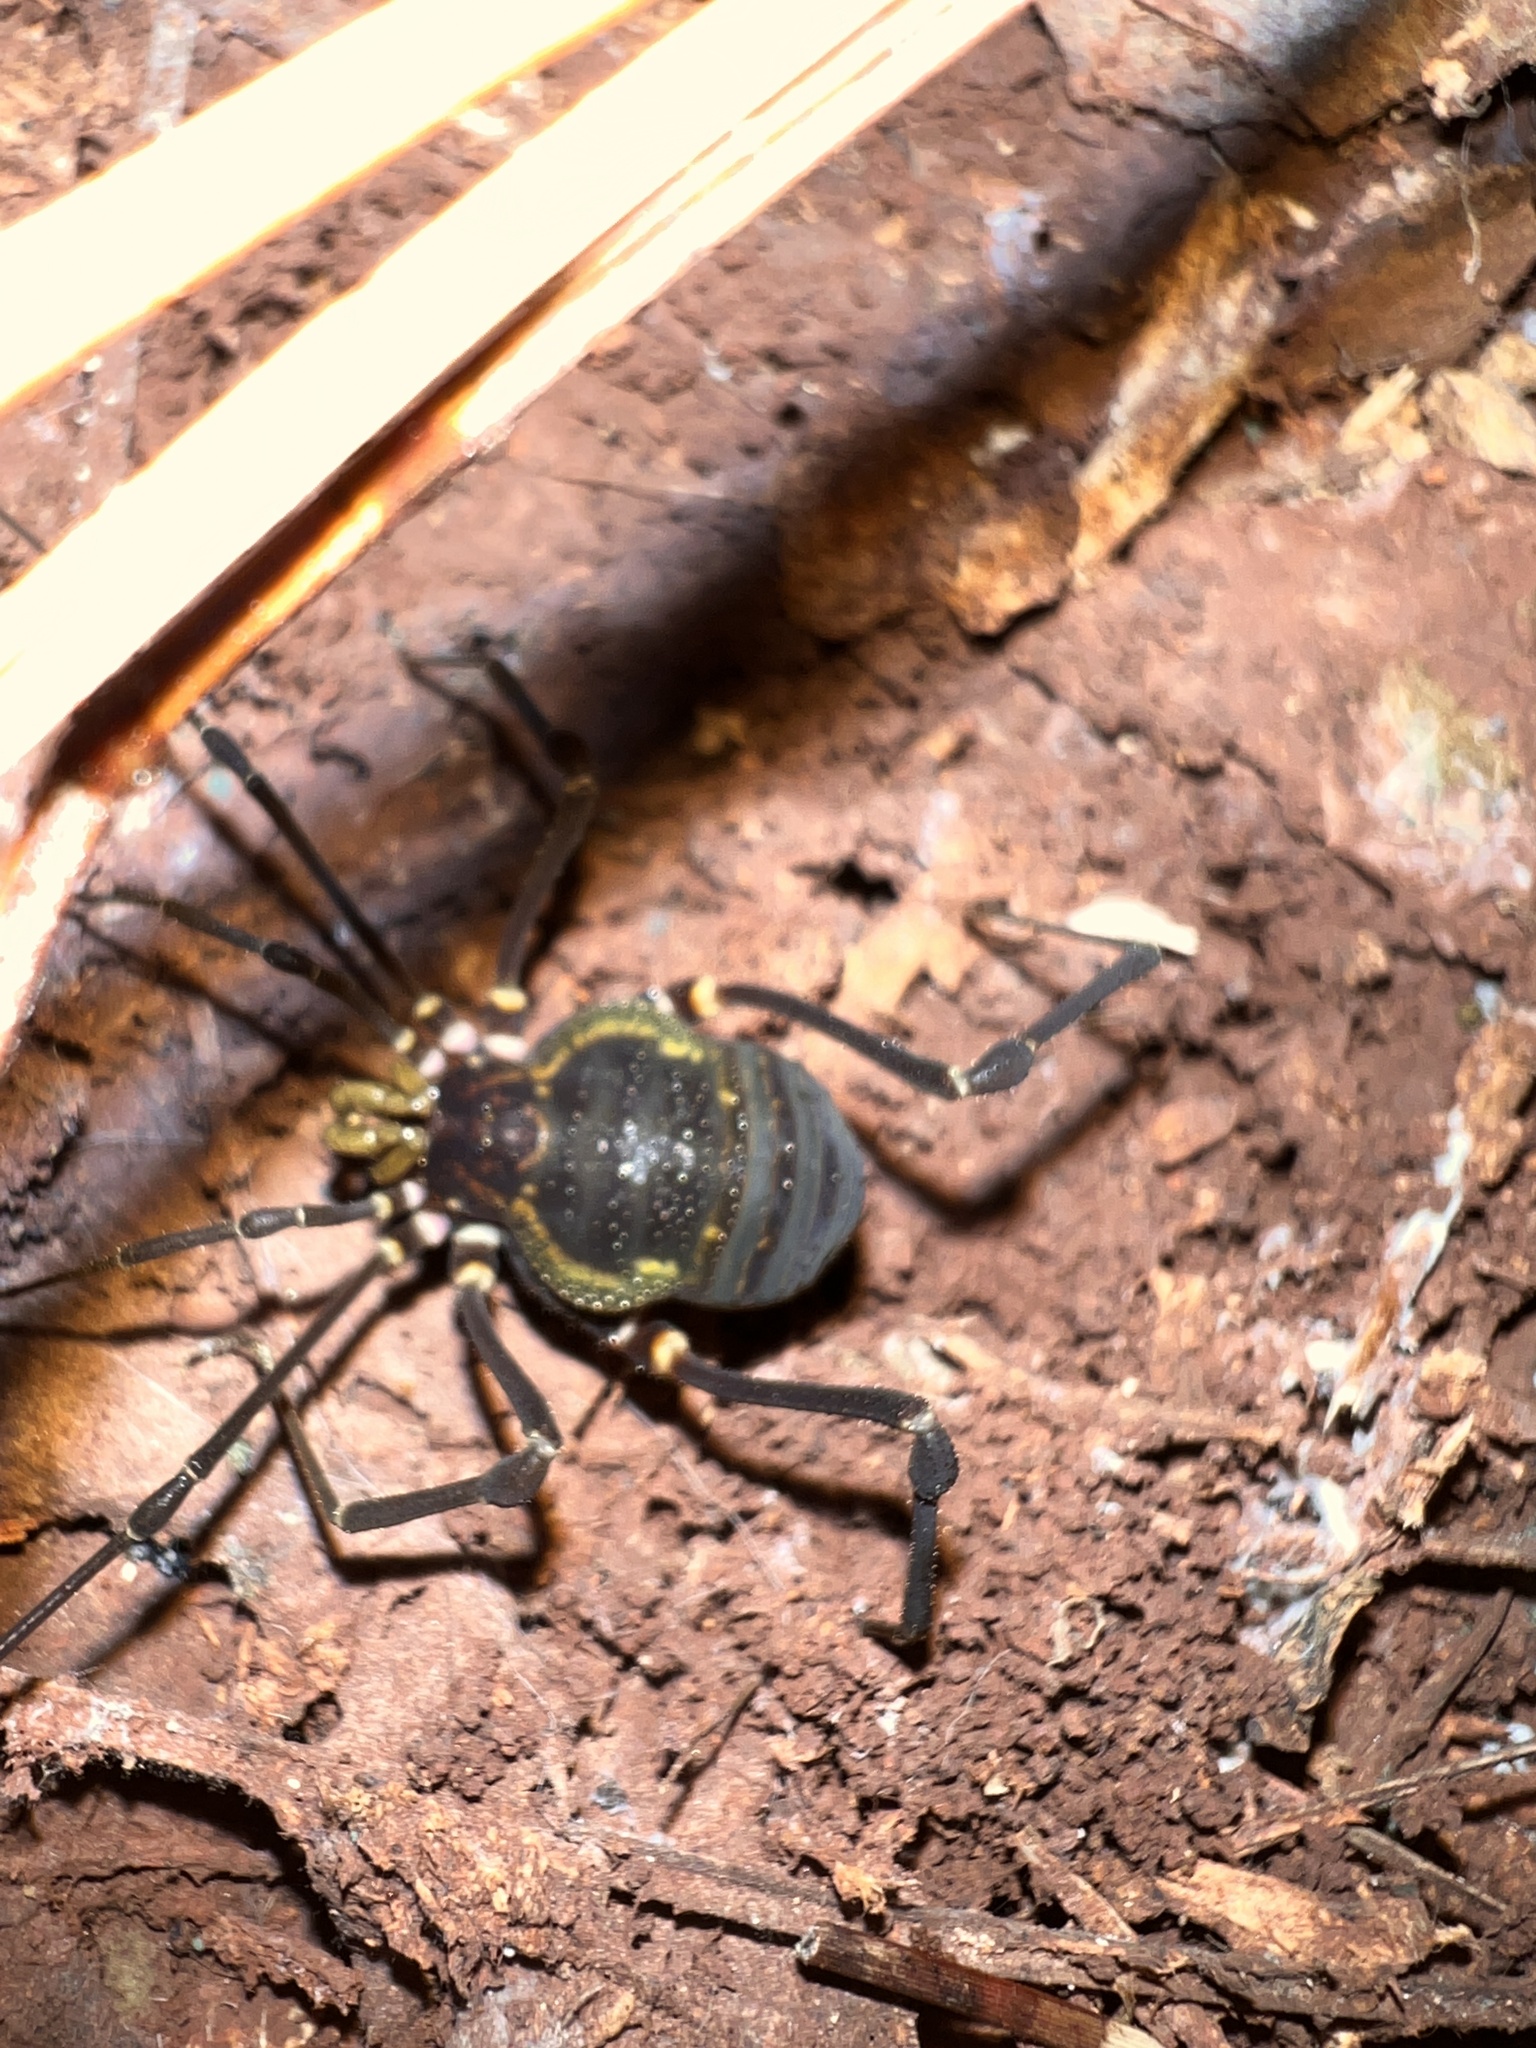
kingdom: Animalia
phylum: Arthropoda
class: Arachnida
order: Opiliones
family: Gonyleptidae
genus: Geraeocormobius
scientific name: Geraeocormobius sylvarum
